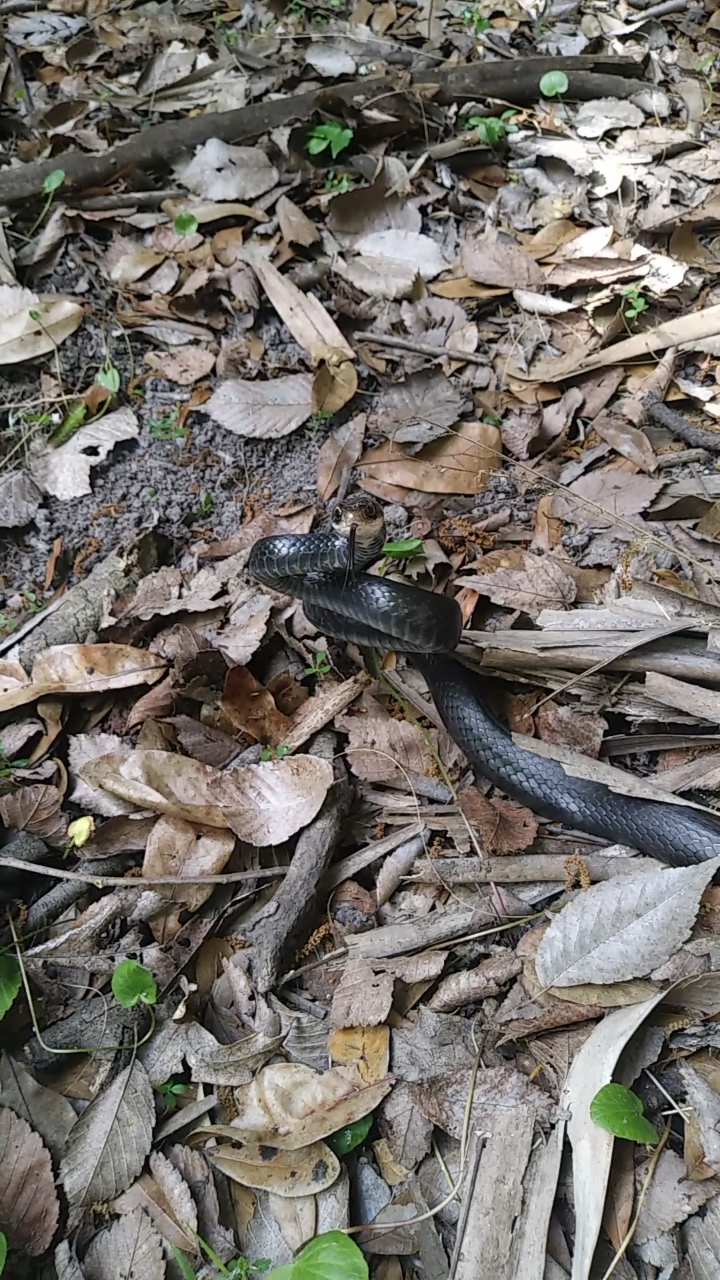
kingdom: Animalia
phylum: Chordata
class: Squamata
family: Colubridae
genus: Coluber
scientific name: Coluber constrictor
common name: Eastern racer
